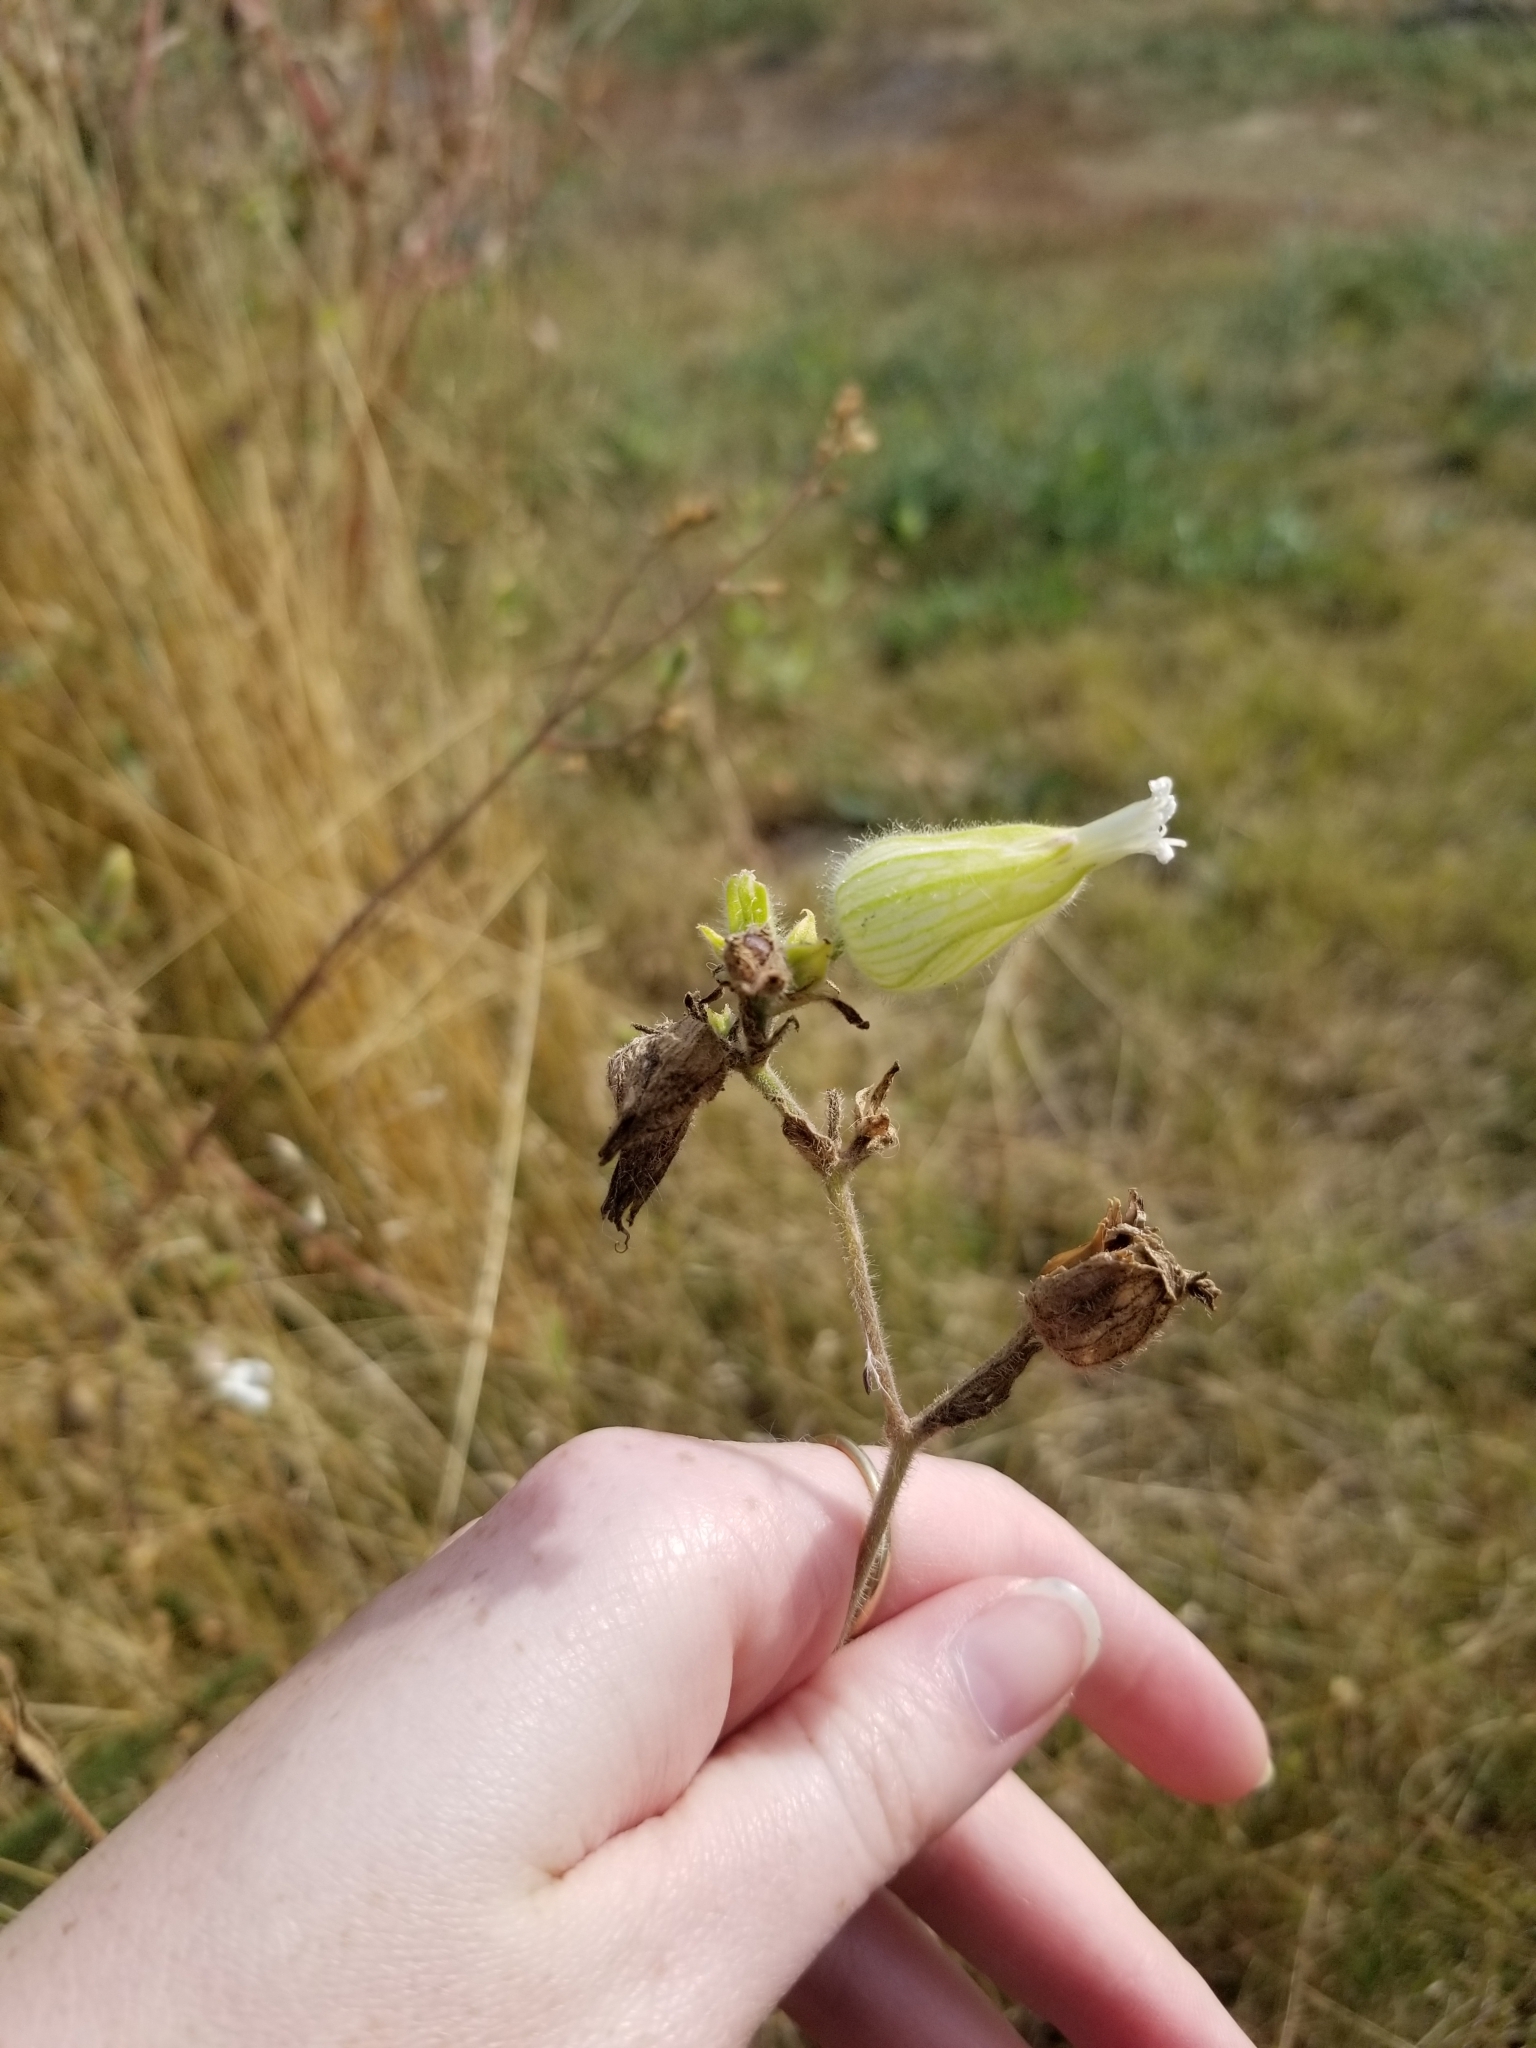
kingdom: Plantae
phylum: Tracheophyta
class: Magnoliopsida
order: Caryophyllales
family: Caryophyllaceae
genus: Silene
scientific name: Silene latifolia
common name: White campion
